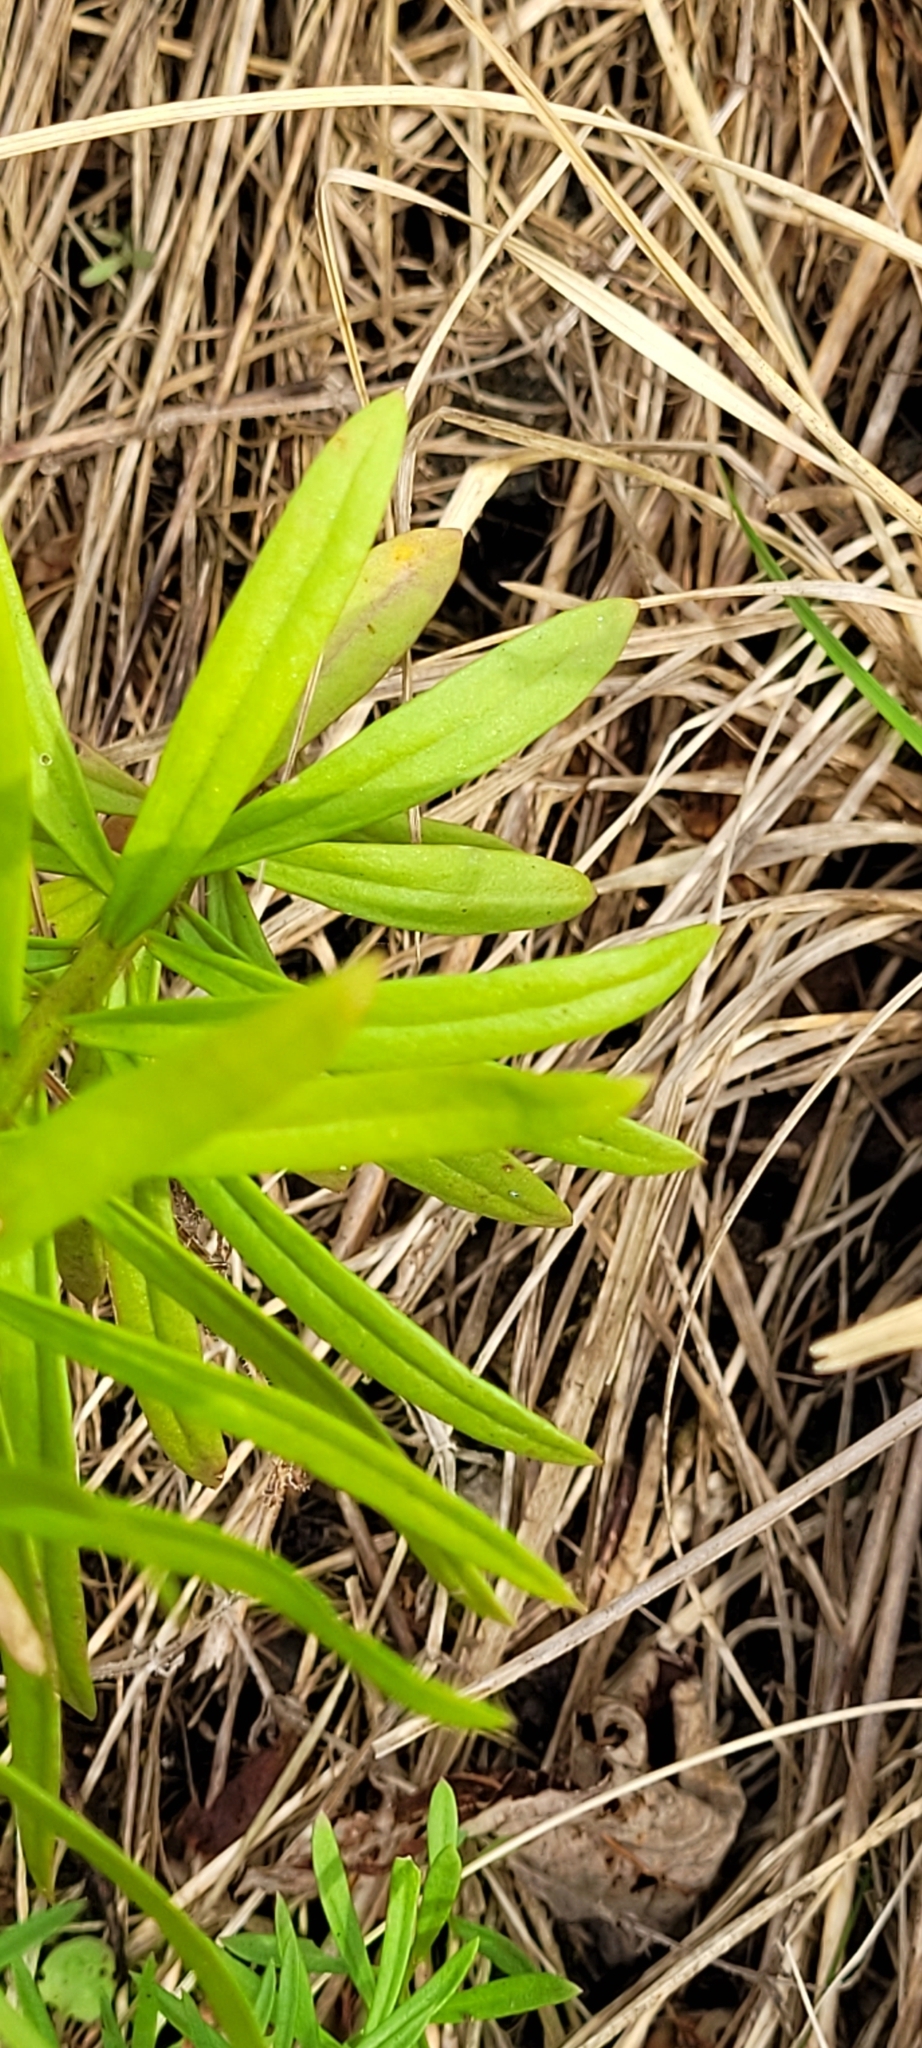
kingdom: Plantae
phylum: Tracheophyta
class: Magnoliopsida
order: Lamiales
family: Plantaginaceae
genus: Linaria
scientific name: Linaria vulgaris
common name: Butter and eggs
